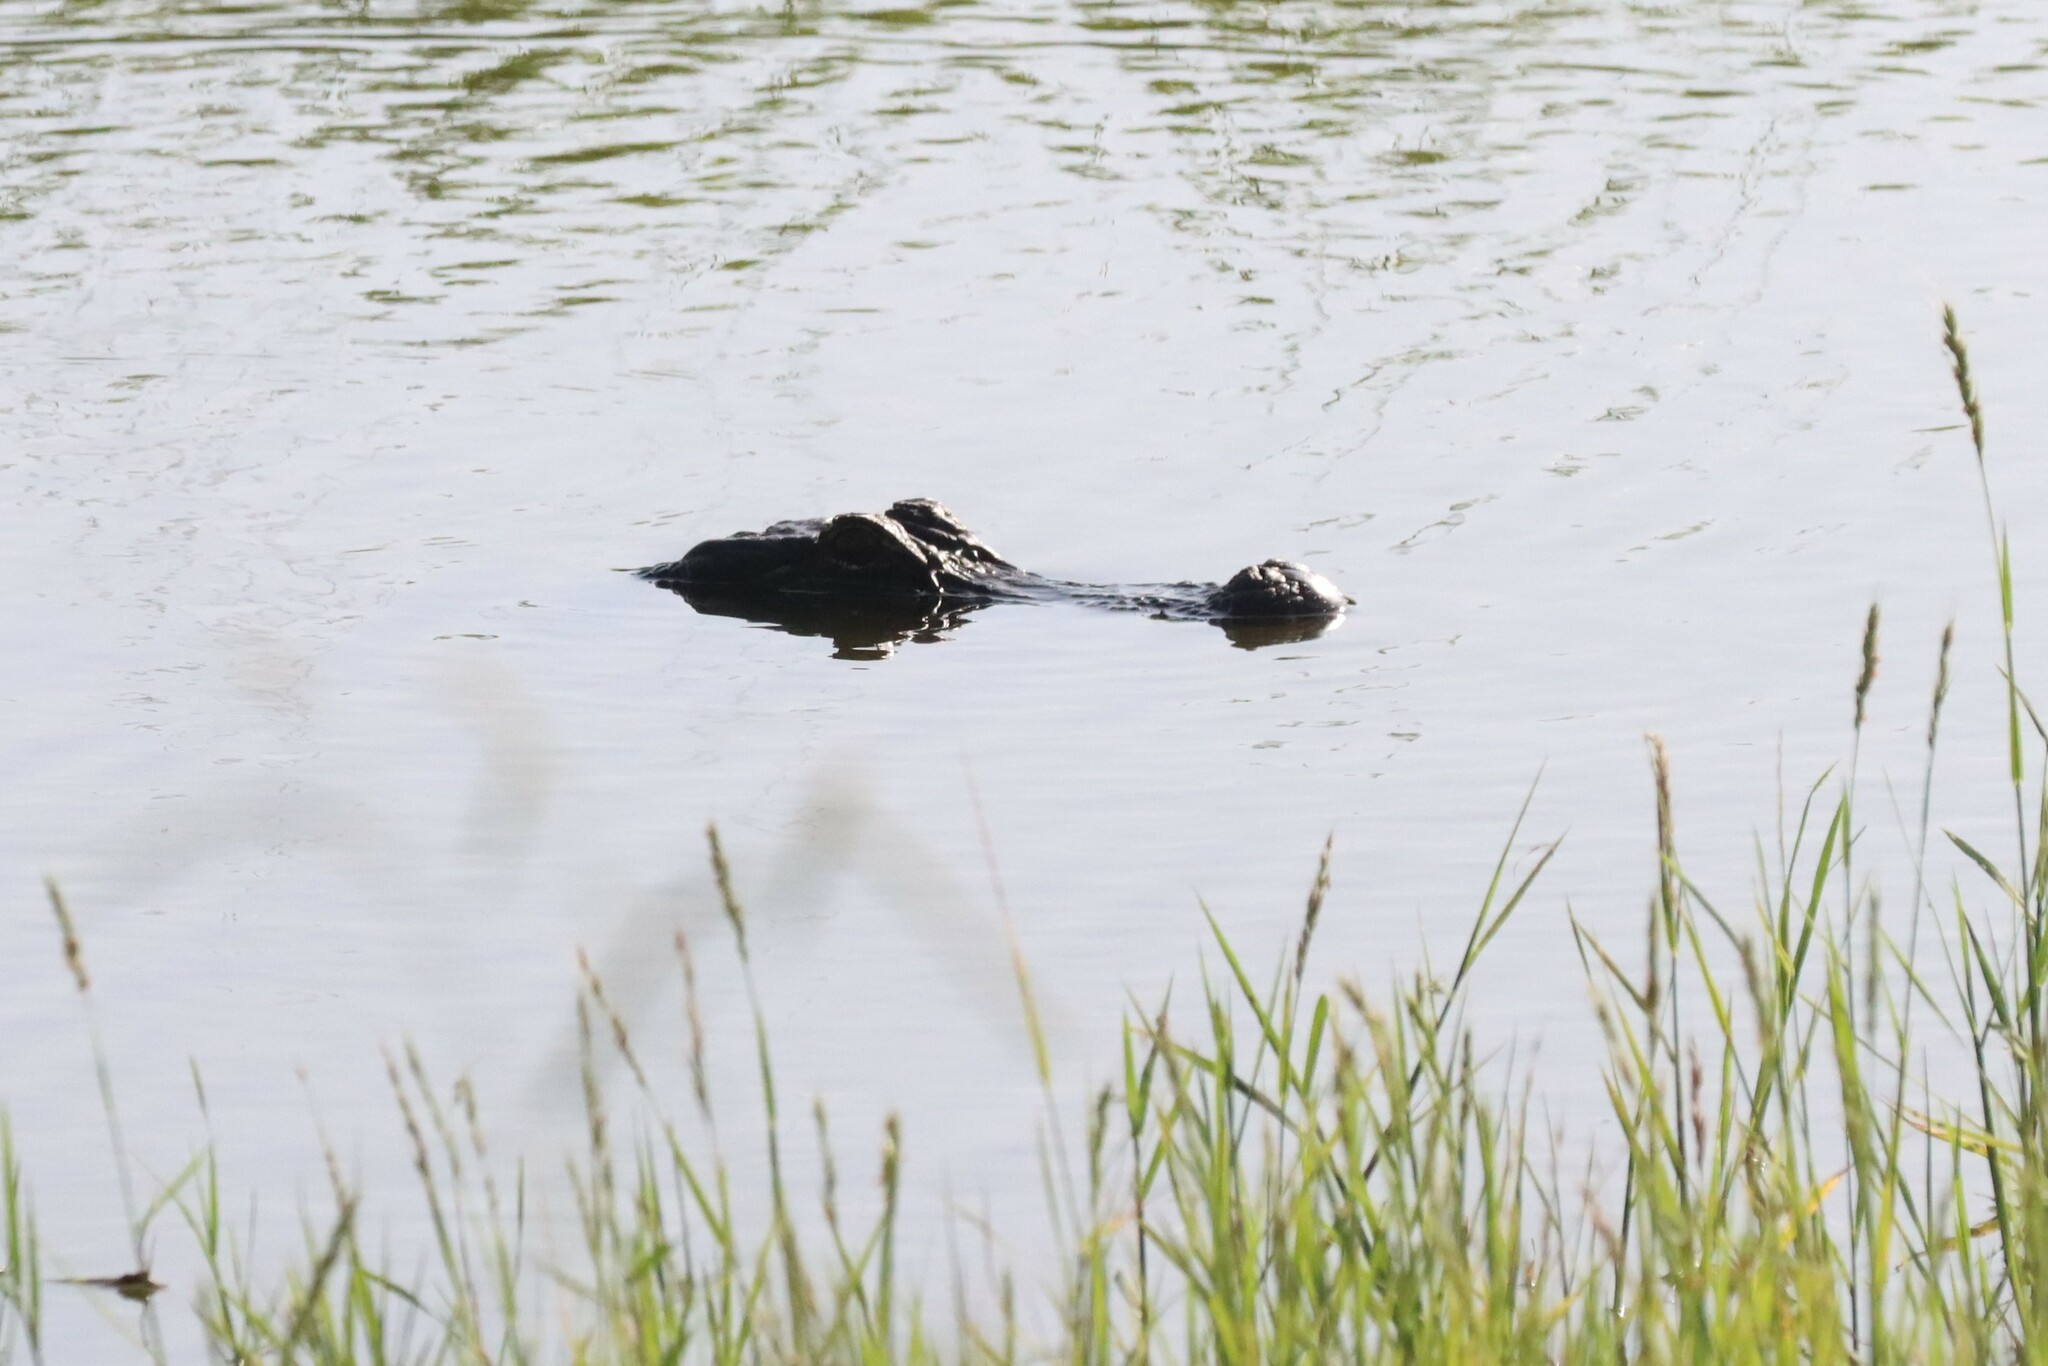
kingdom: Animalia
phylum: Chordata
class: Crocodylia
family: Alligatoridae
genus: Alligator
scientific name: Alligator mississippiensis
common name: American alligator
